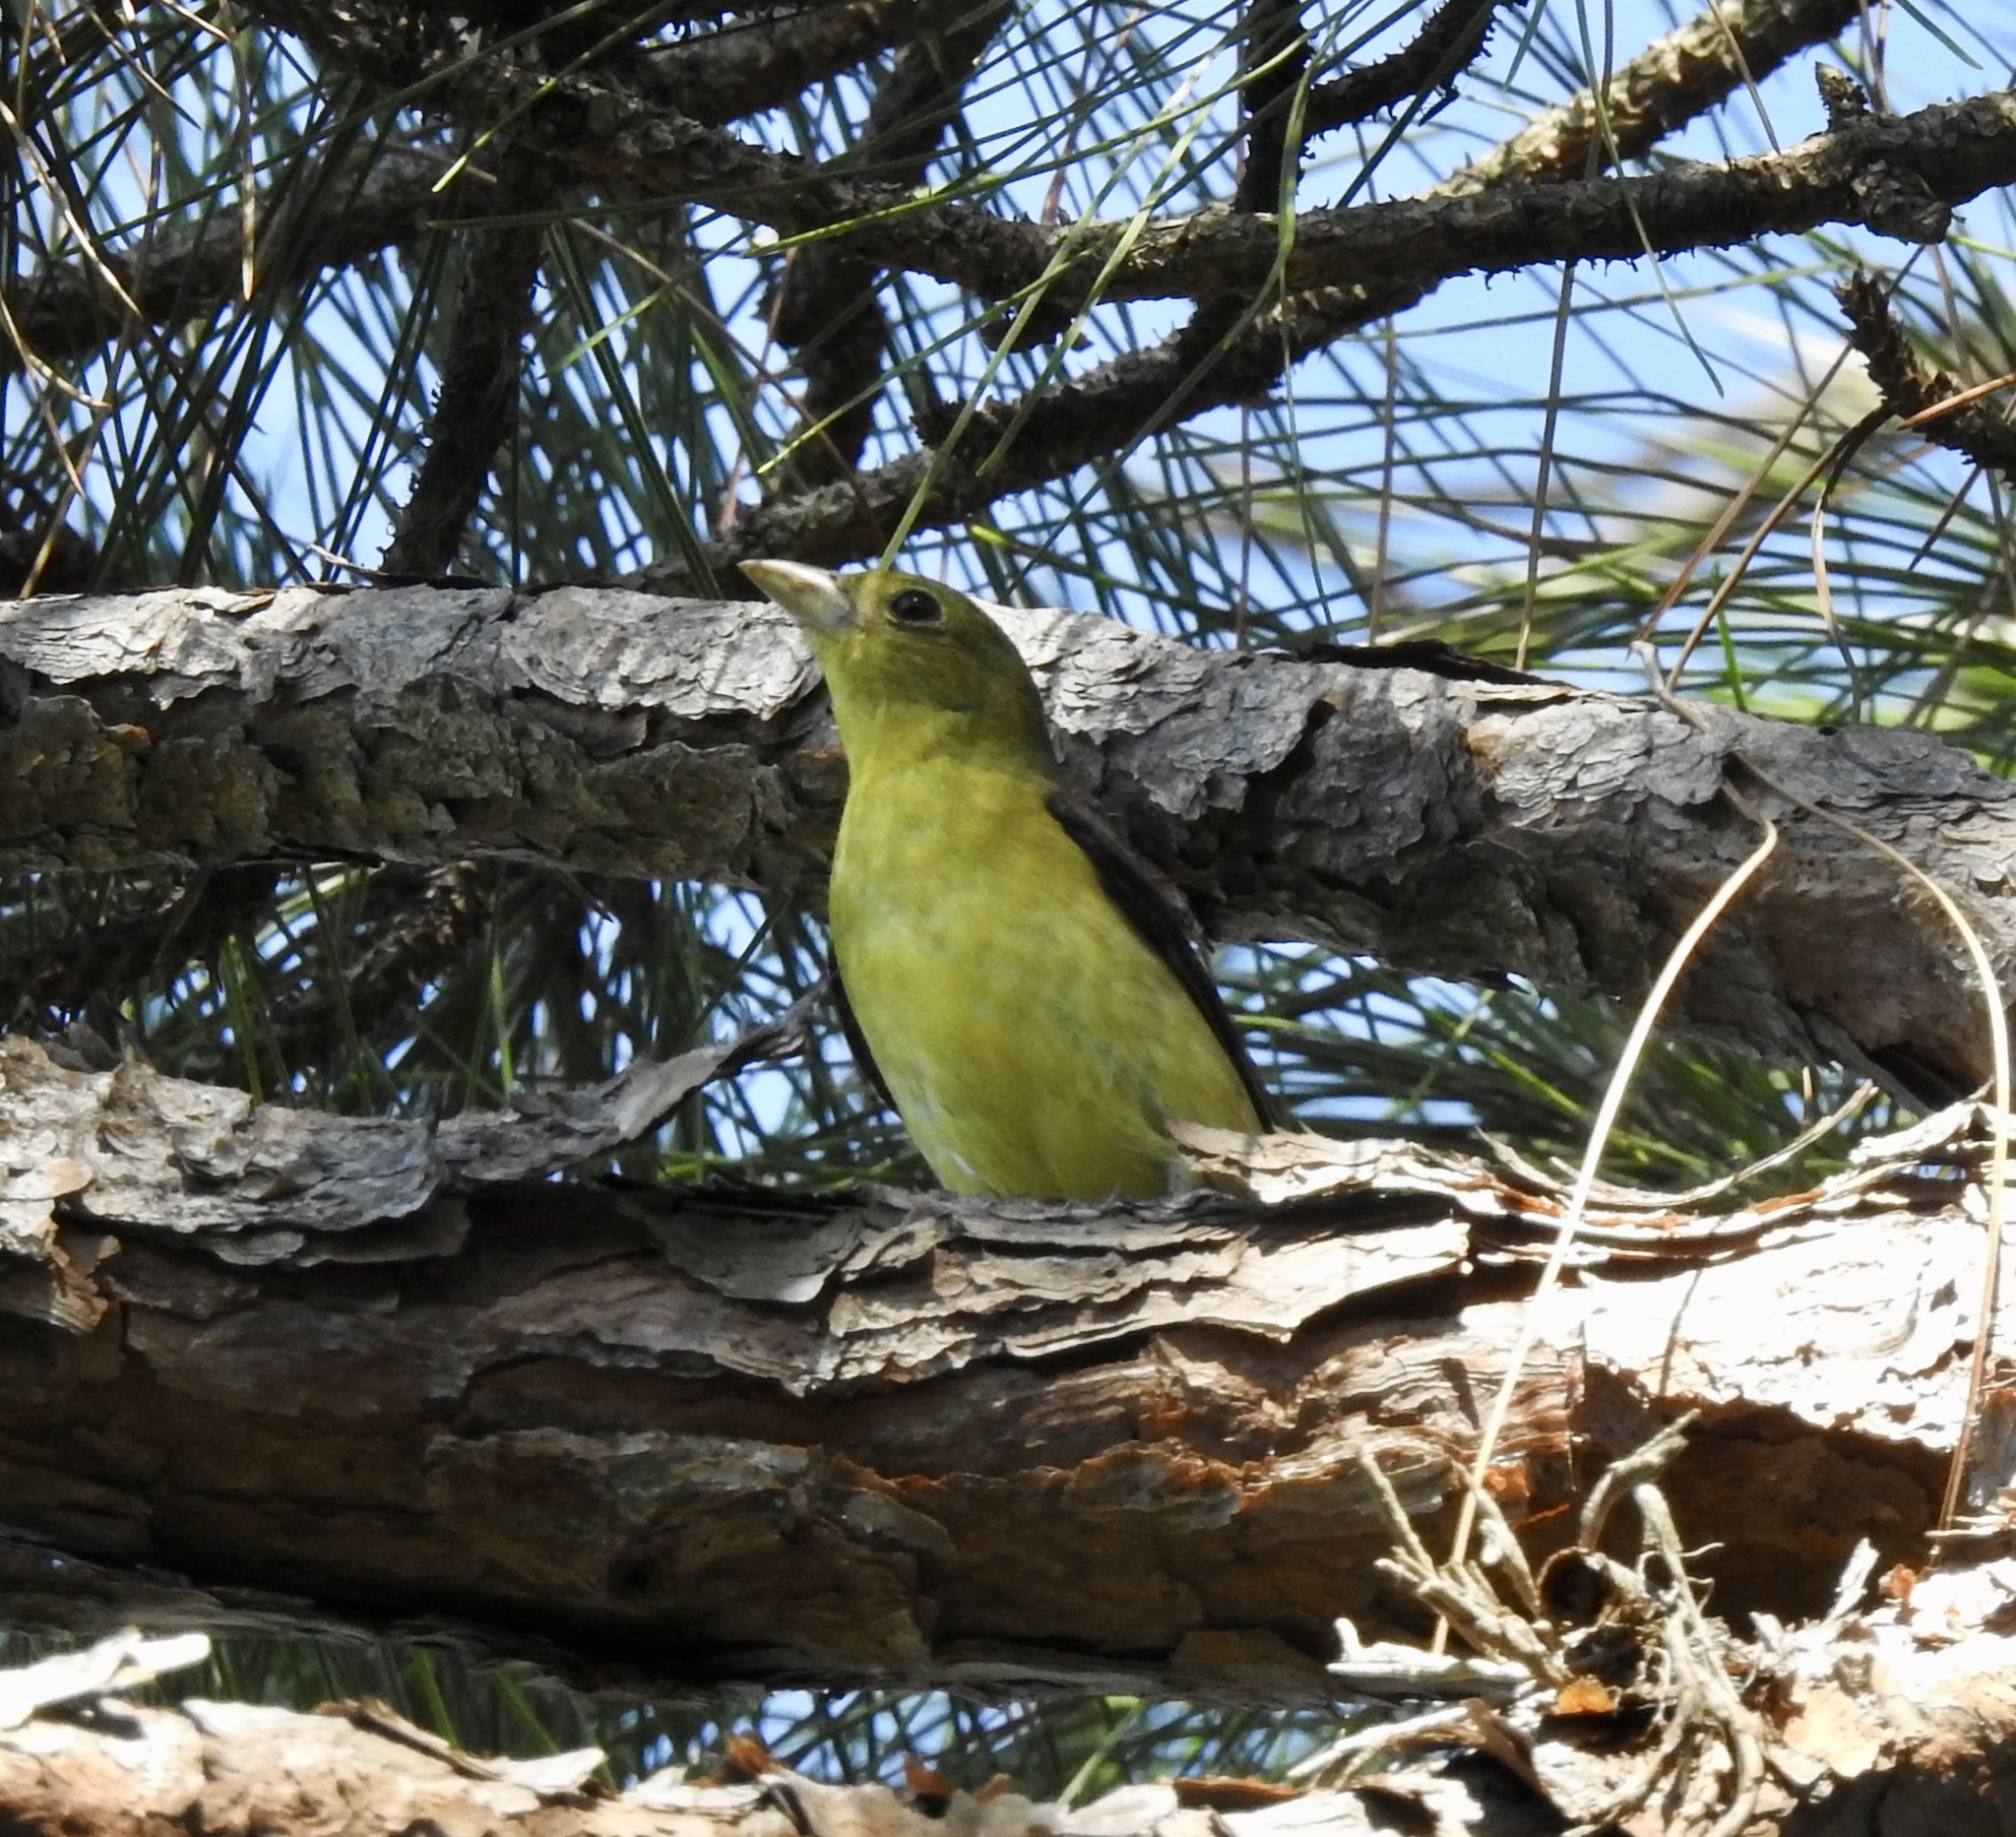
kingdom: Animalia
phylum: Chordata
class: Aves
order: Passeriformes
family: Cardinalidae
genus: Piranga
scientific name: Piranga olivacea
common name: Scarlet tanager
